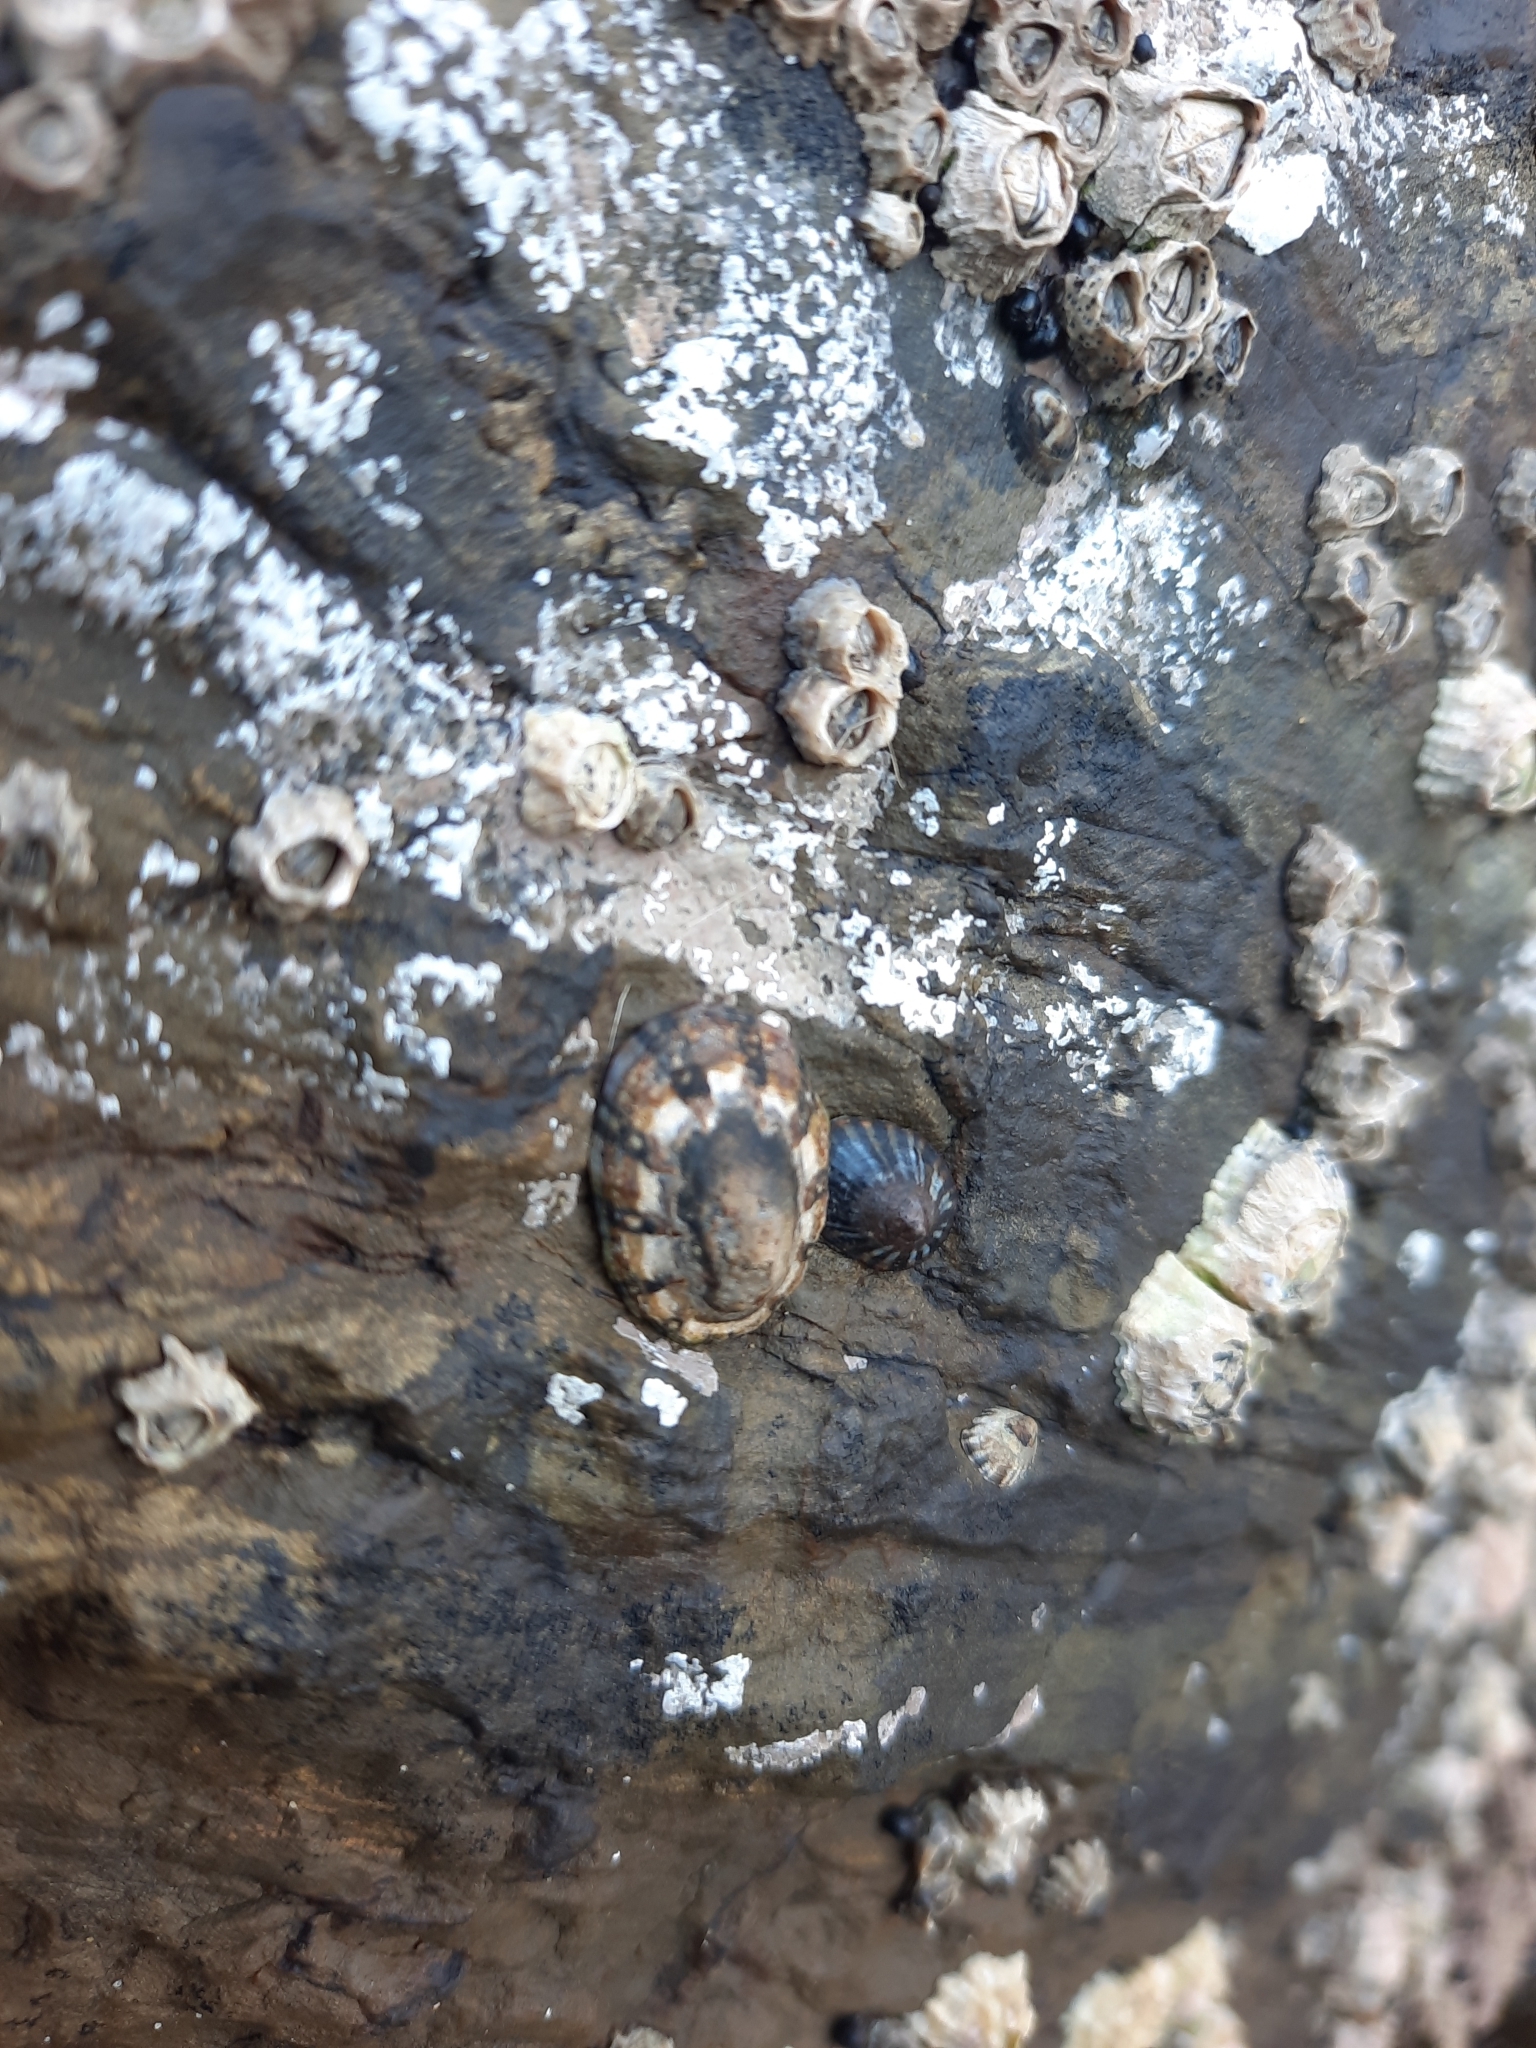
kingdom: Animalia
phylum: Mollusca
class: Gastropoda
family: Nacellidae
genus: Cellana
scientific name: Cellana ornata
